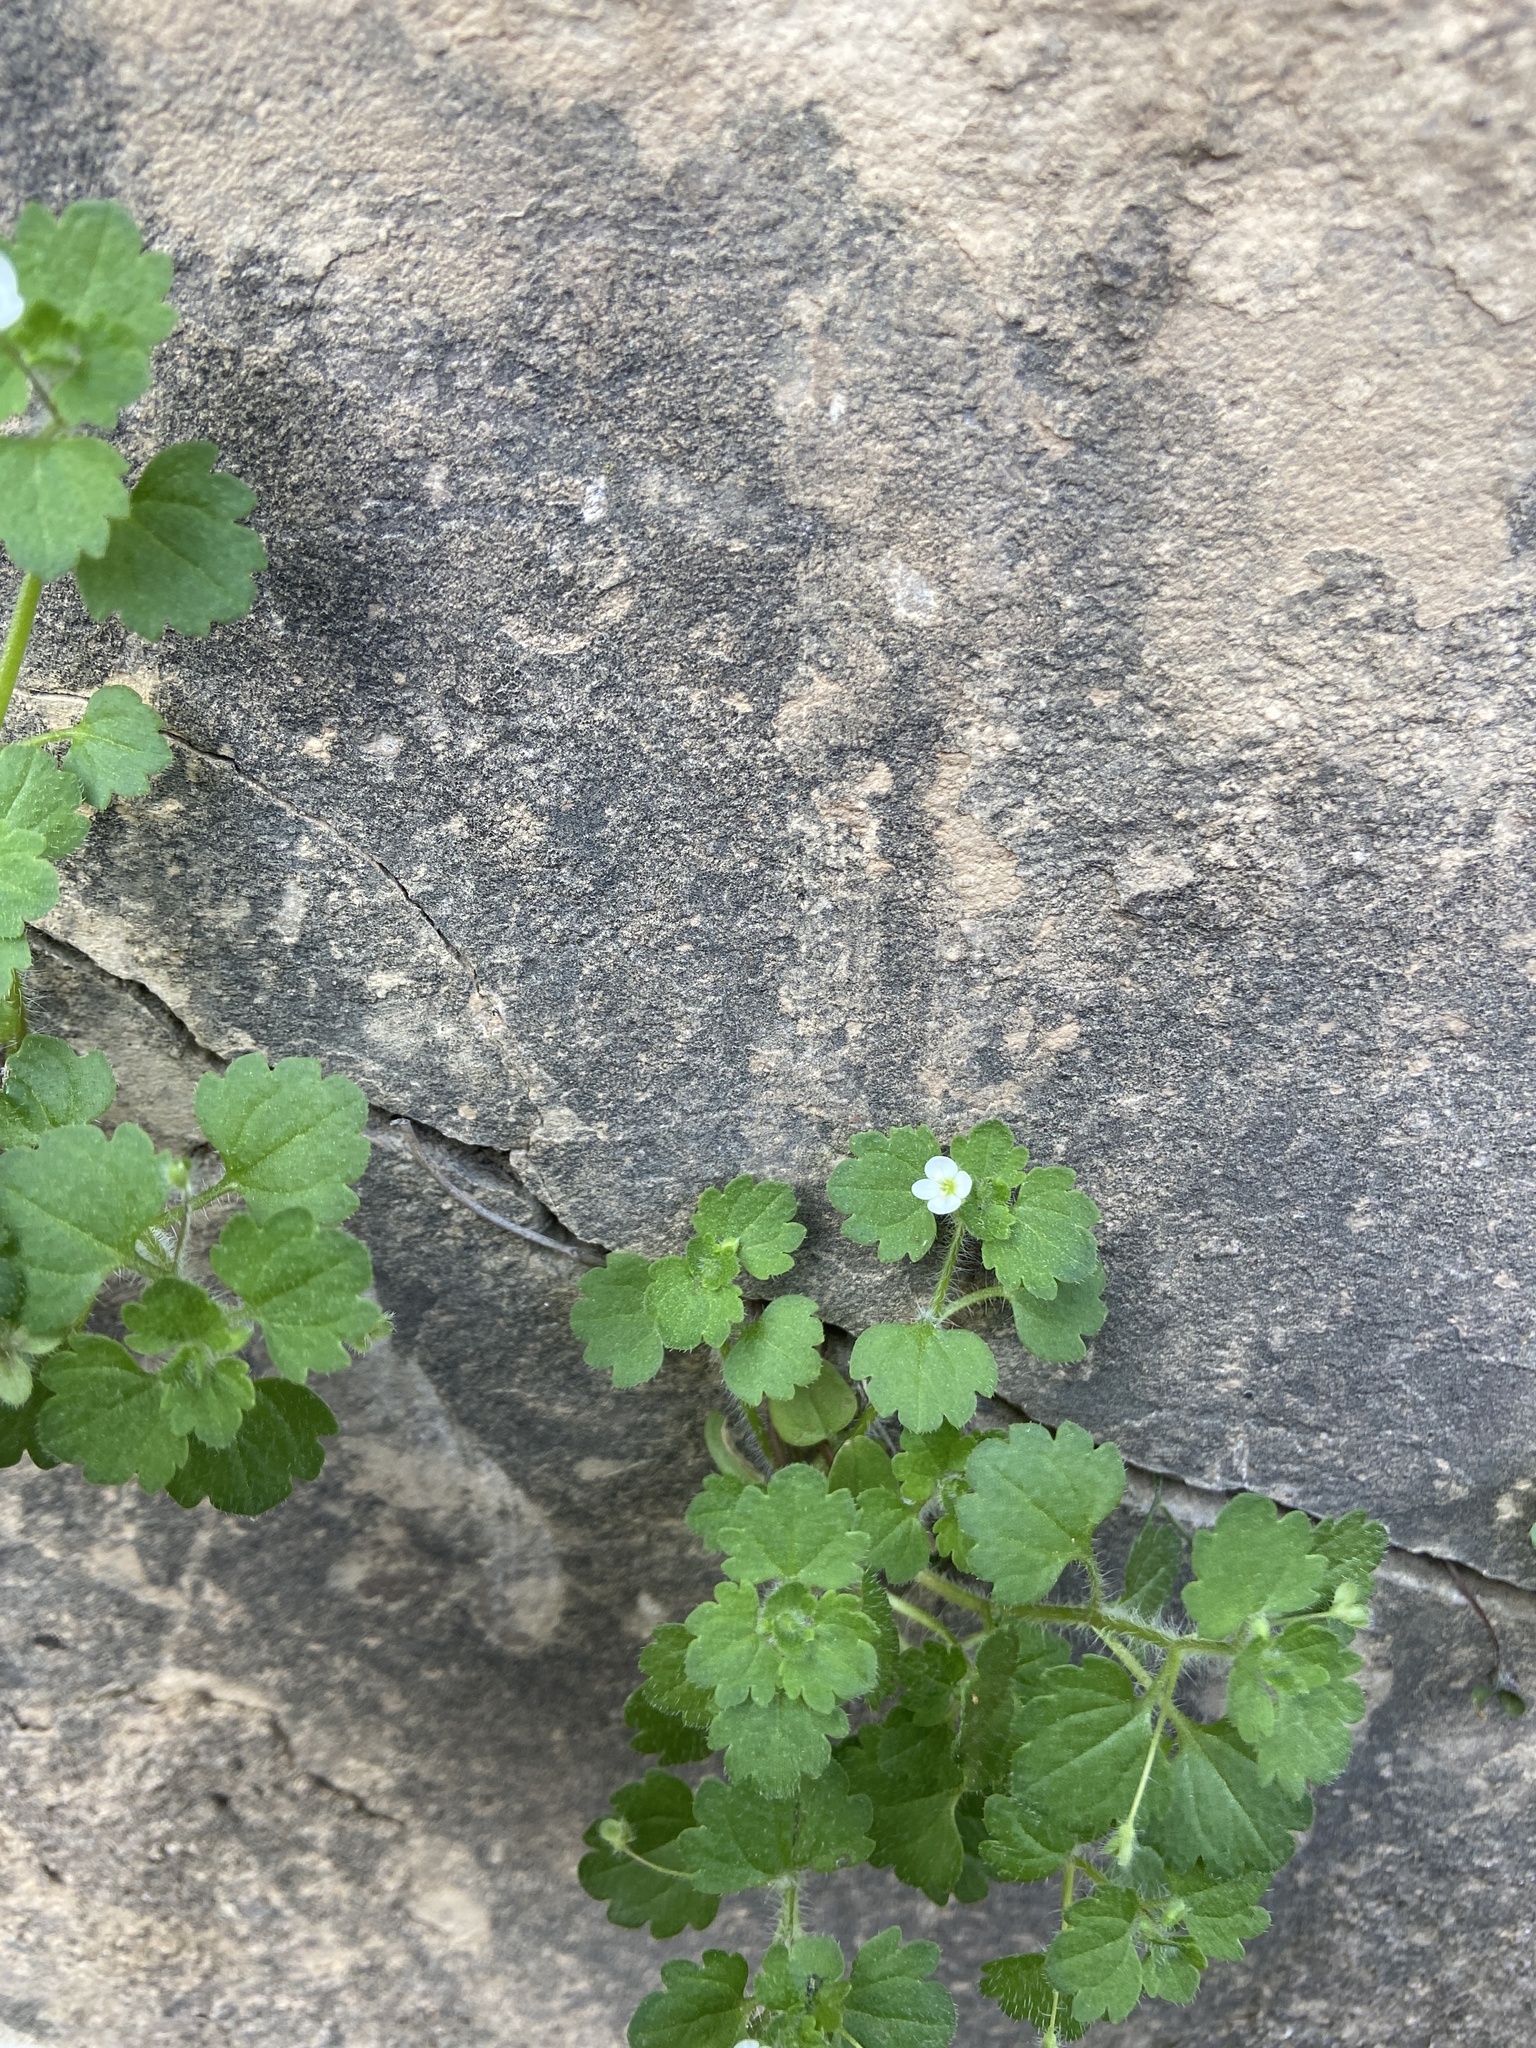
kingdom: Plantae
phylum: Tracheophyta
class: Magnoliopsida
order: Lamiales
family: Plantaginaceae
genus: Veronica
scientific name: Veronica cymbalaria
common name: Pale speedwell
